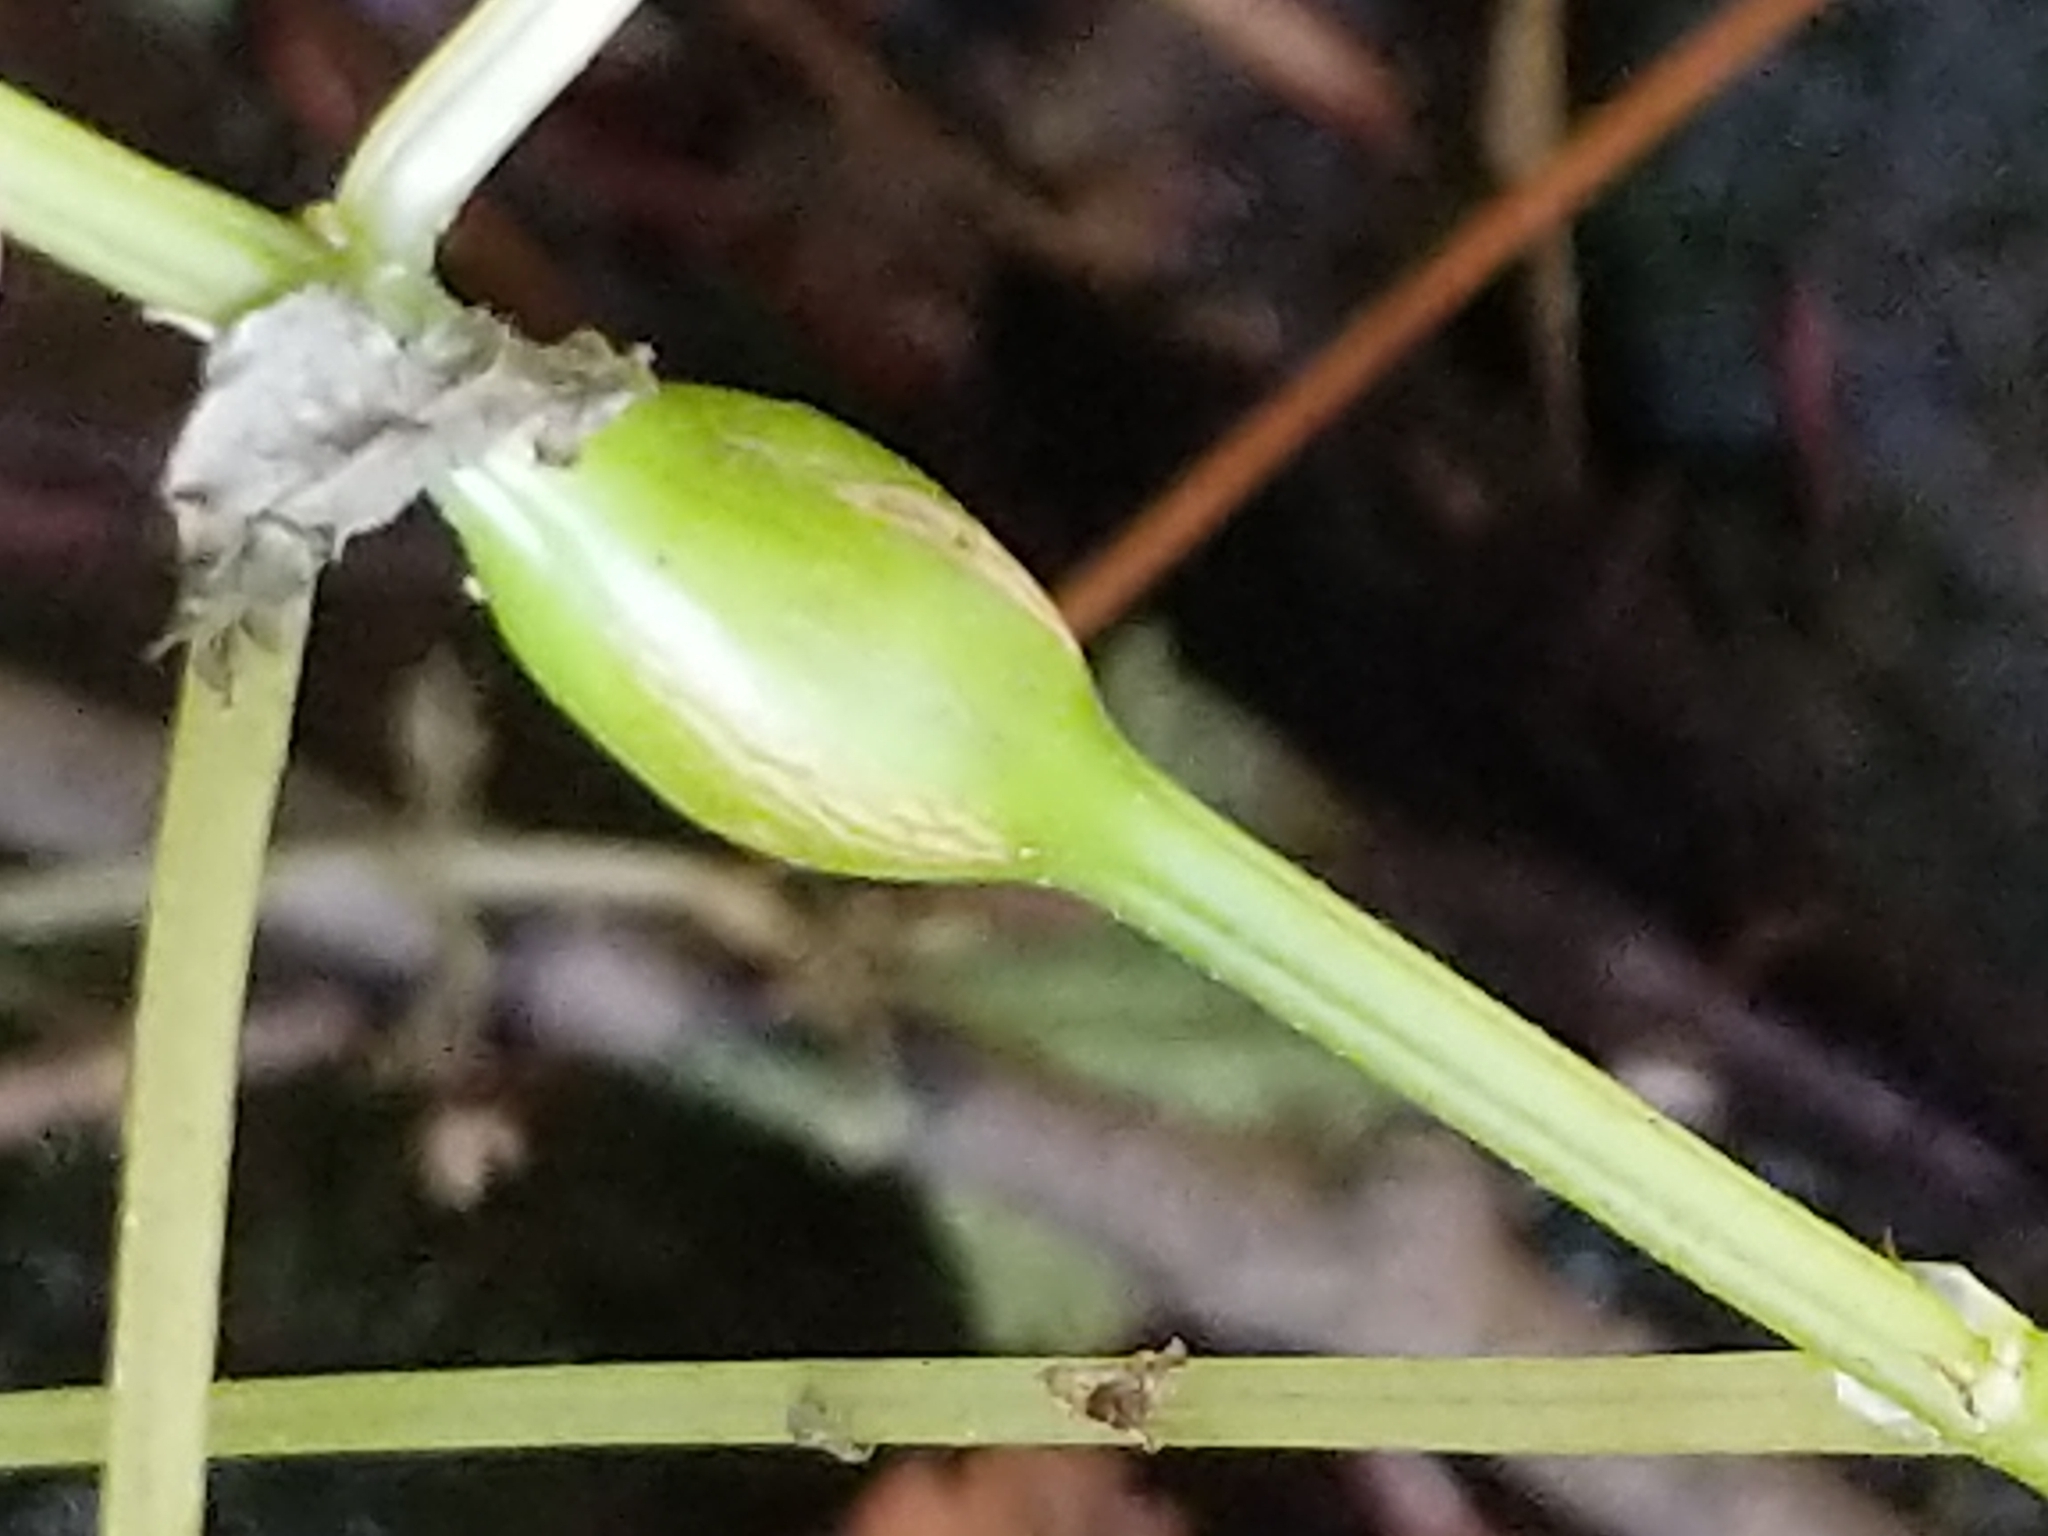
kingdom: Animalia
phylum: Arthropoda
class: Insecta
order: Diptera
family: Cecidomyiidae
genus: Neolasioptera
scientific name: Neolasioptera boehmeriae
